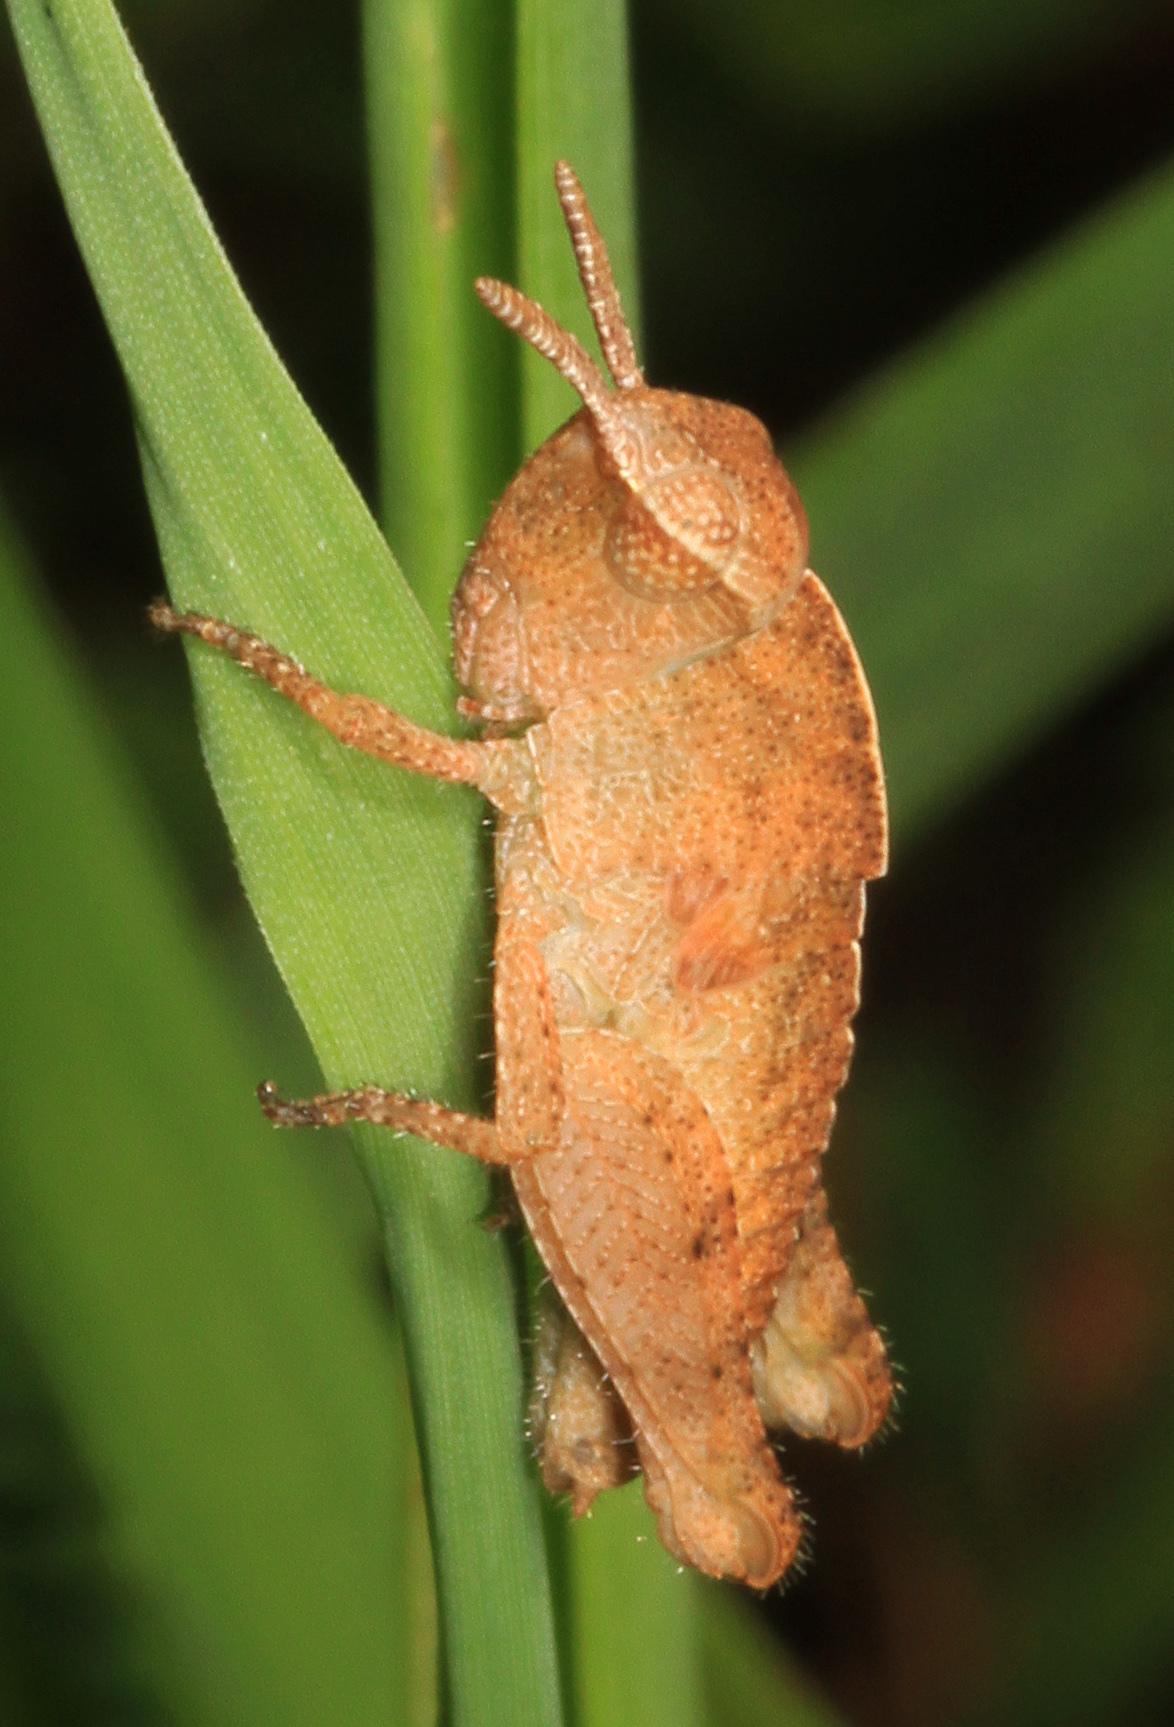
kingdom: Animalia
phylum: Arthropoda
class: Insecta
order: Orthoptera
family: Acrididae
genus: Chortophaga
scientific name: Chortophaga viridifasciata
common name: Green-striped grasshopper
